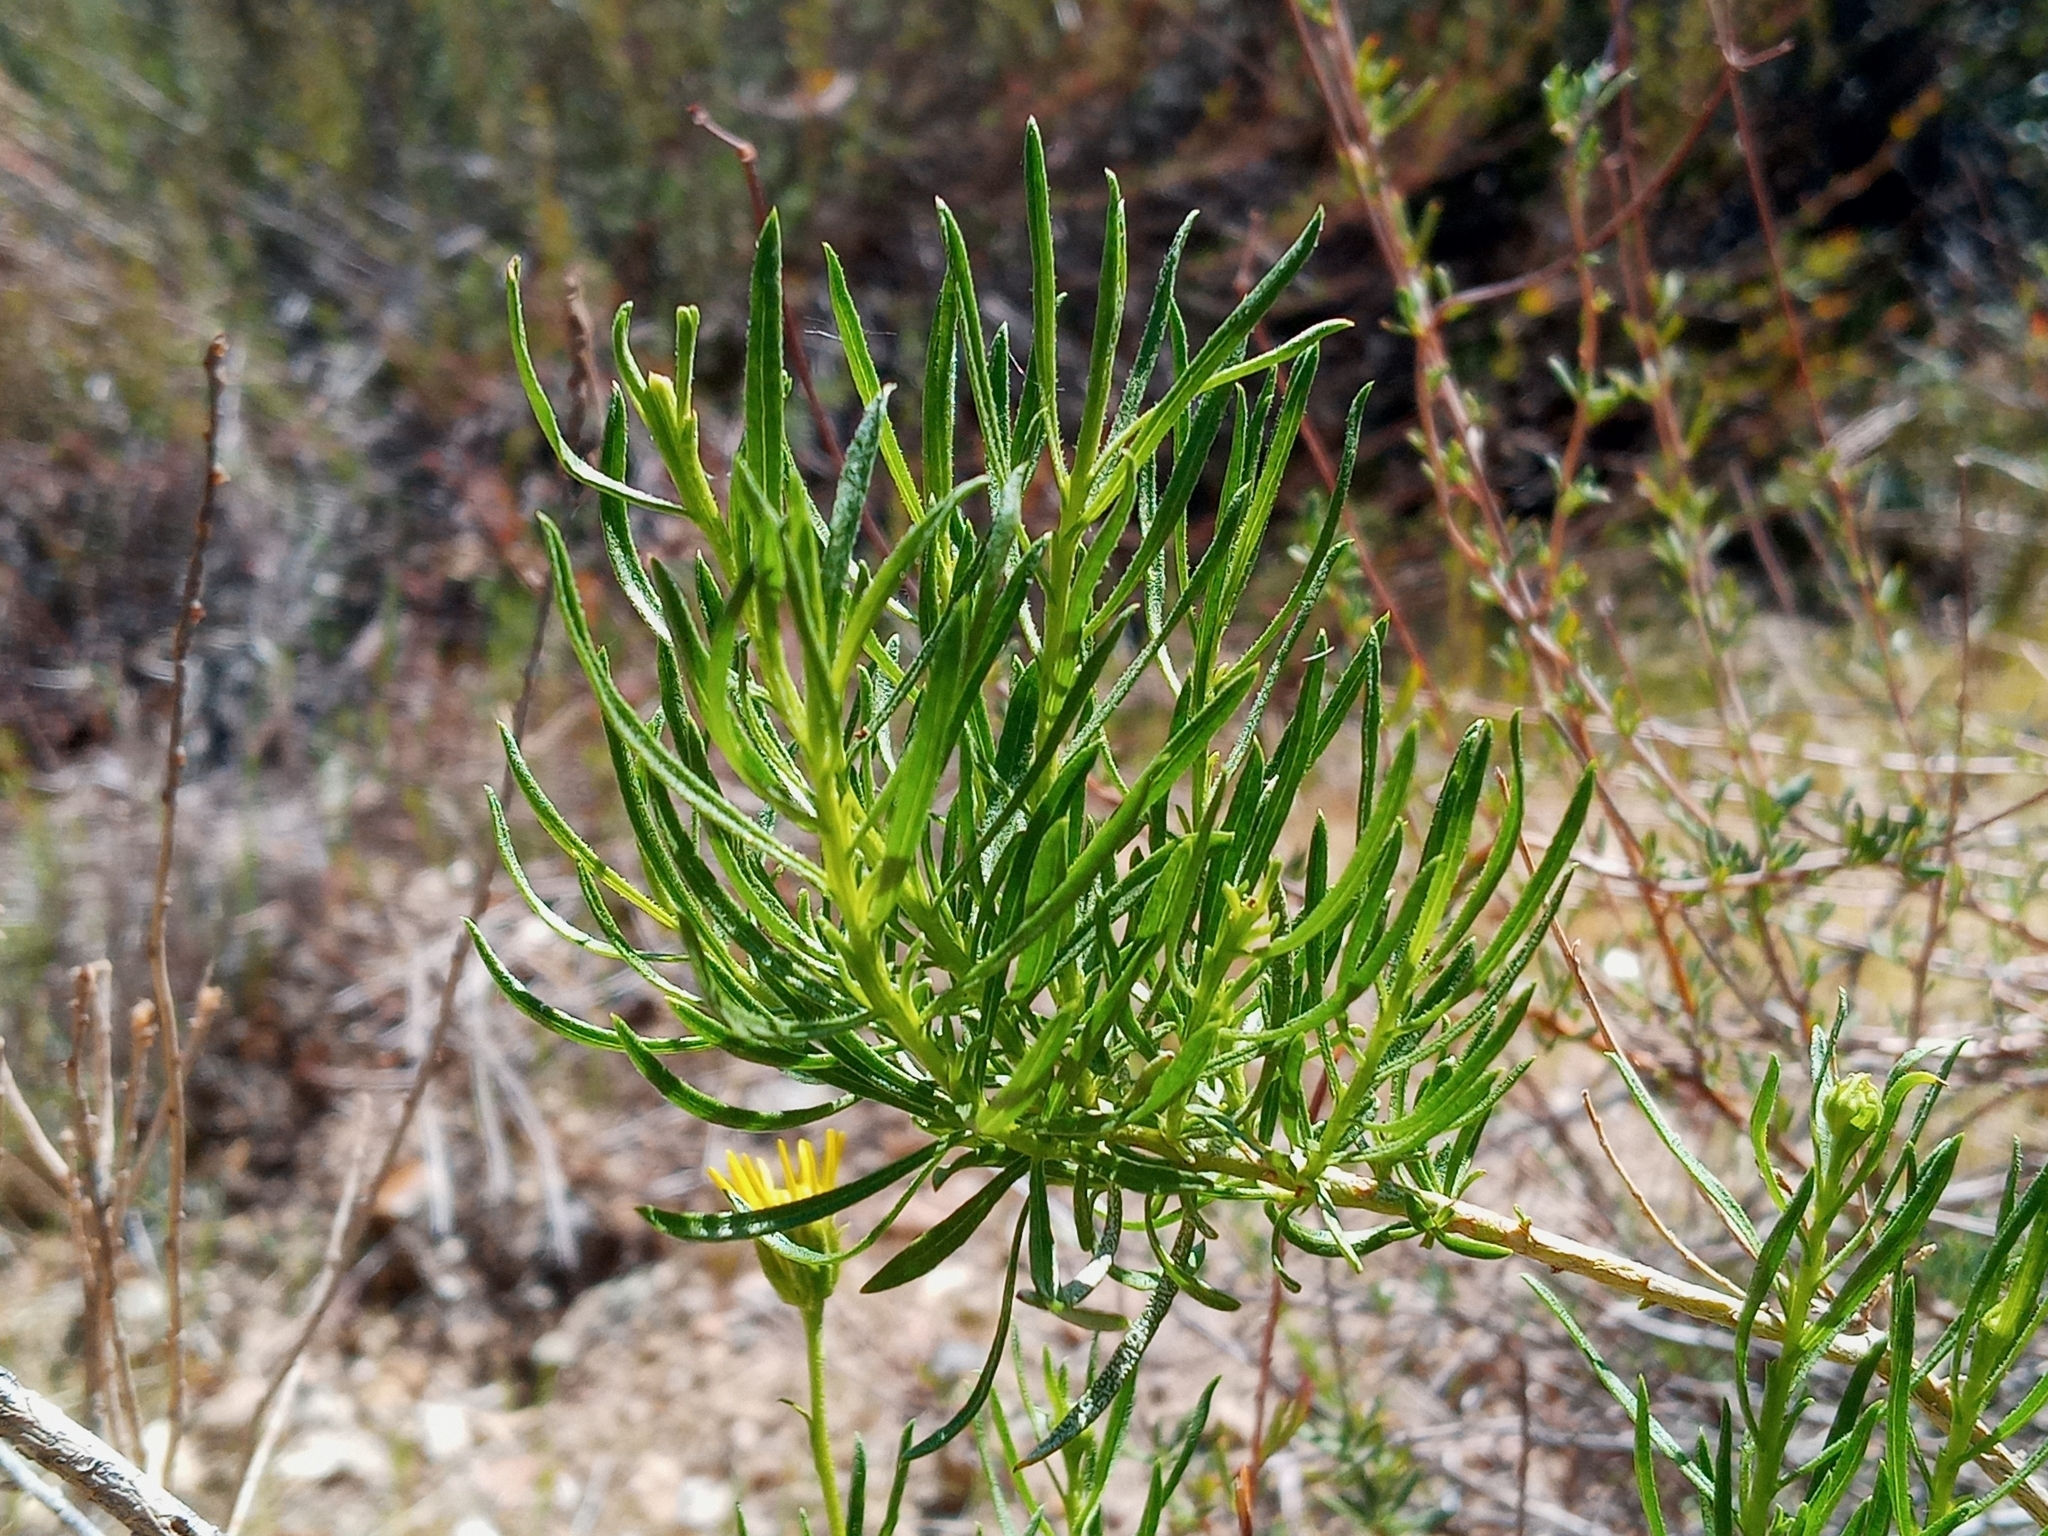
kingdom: Plantae
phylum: Tracheophyta
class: Magnoliopsida
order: Asterales
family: Asteraceae
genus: Ericameria
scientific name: Ericameria linearifolia
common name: Interior goldenbush
